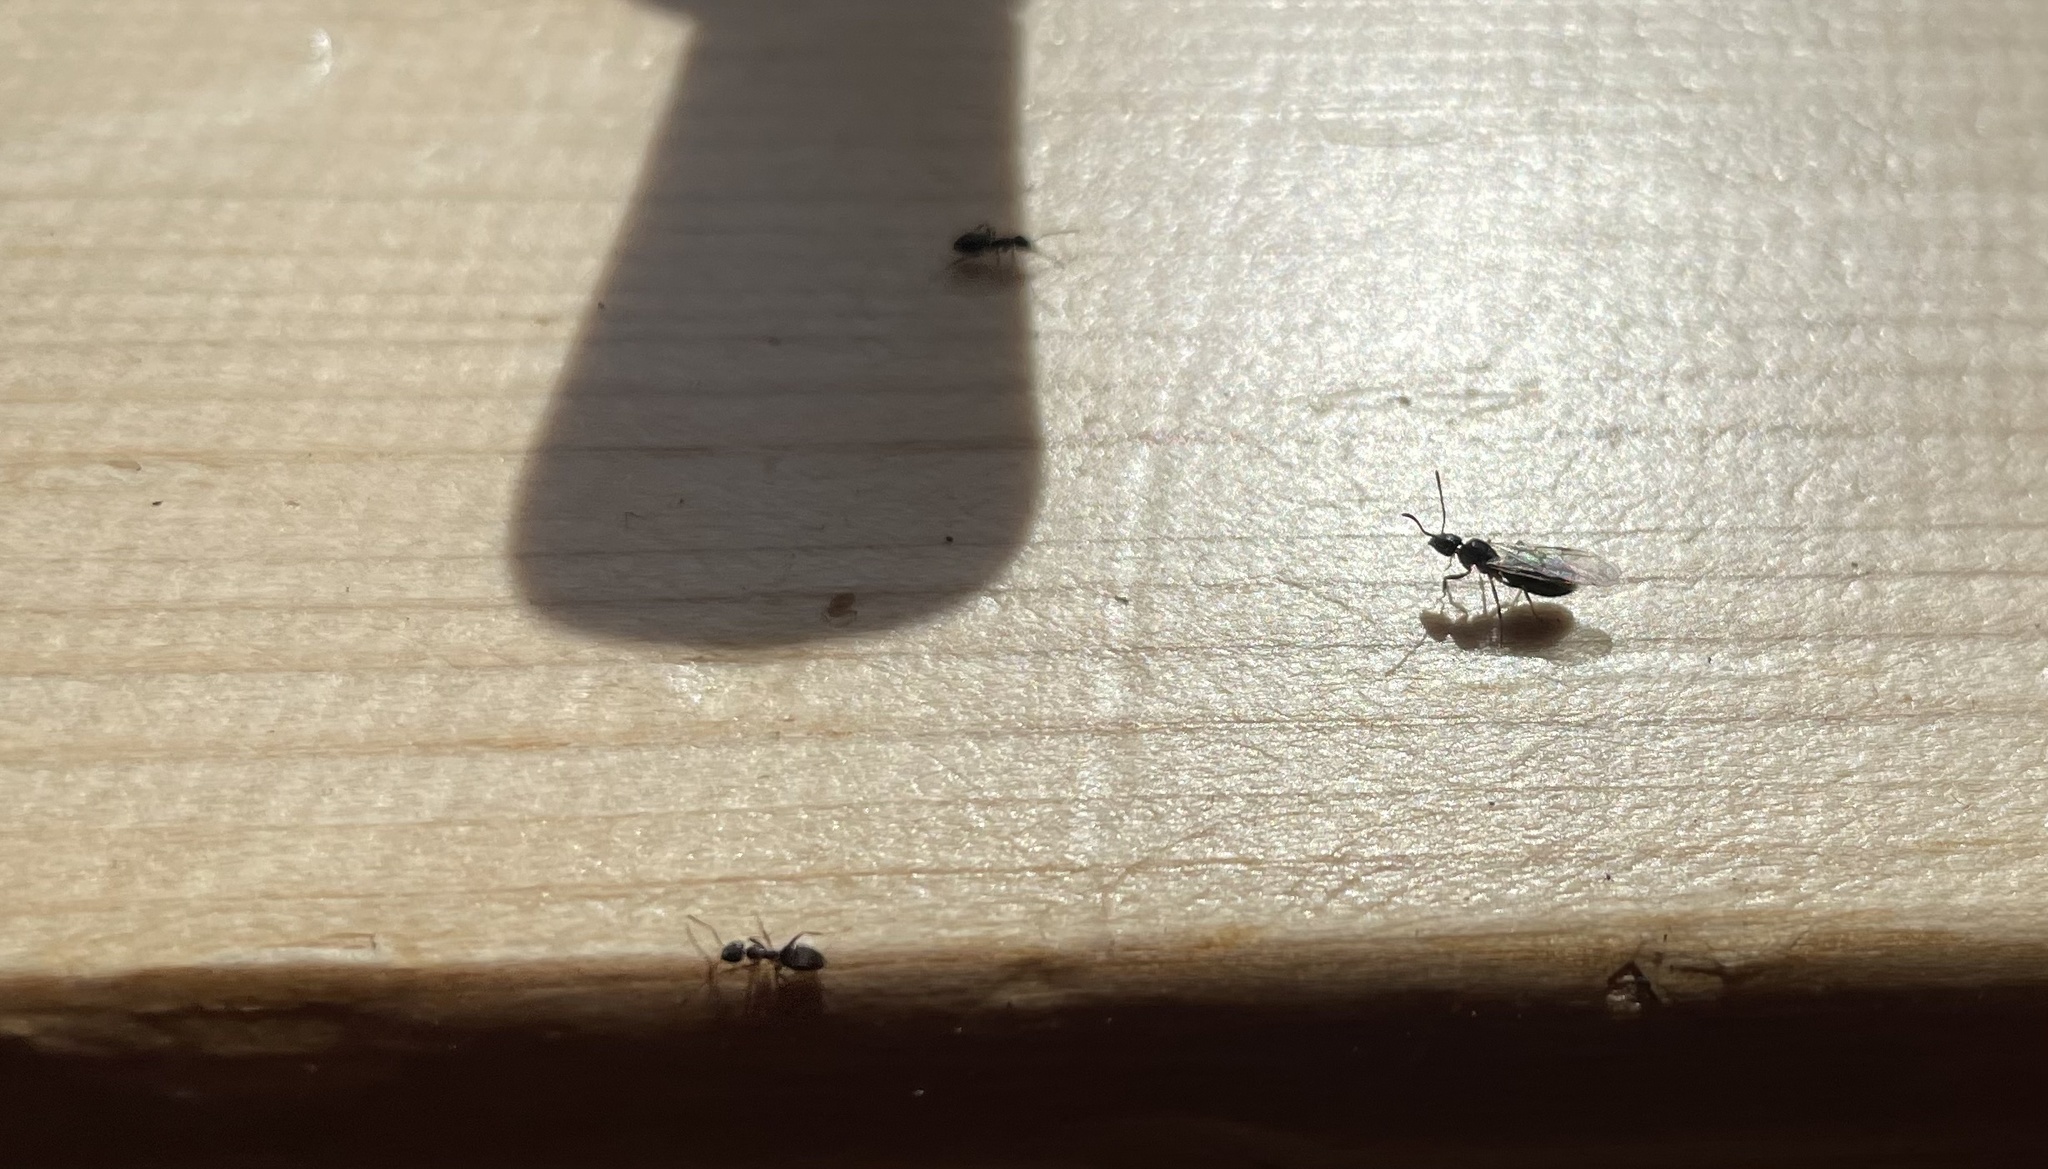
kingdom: Animalia
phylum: Arthropoda
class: Insecta
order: Hymenoptera
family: Formicidae
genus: Tapinoma
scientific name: Tapinoma sessile
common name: Odorous house ant
